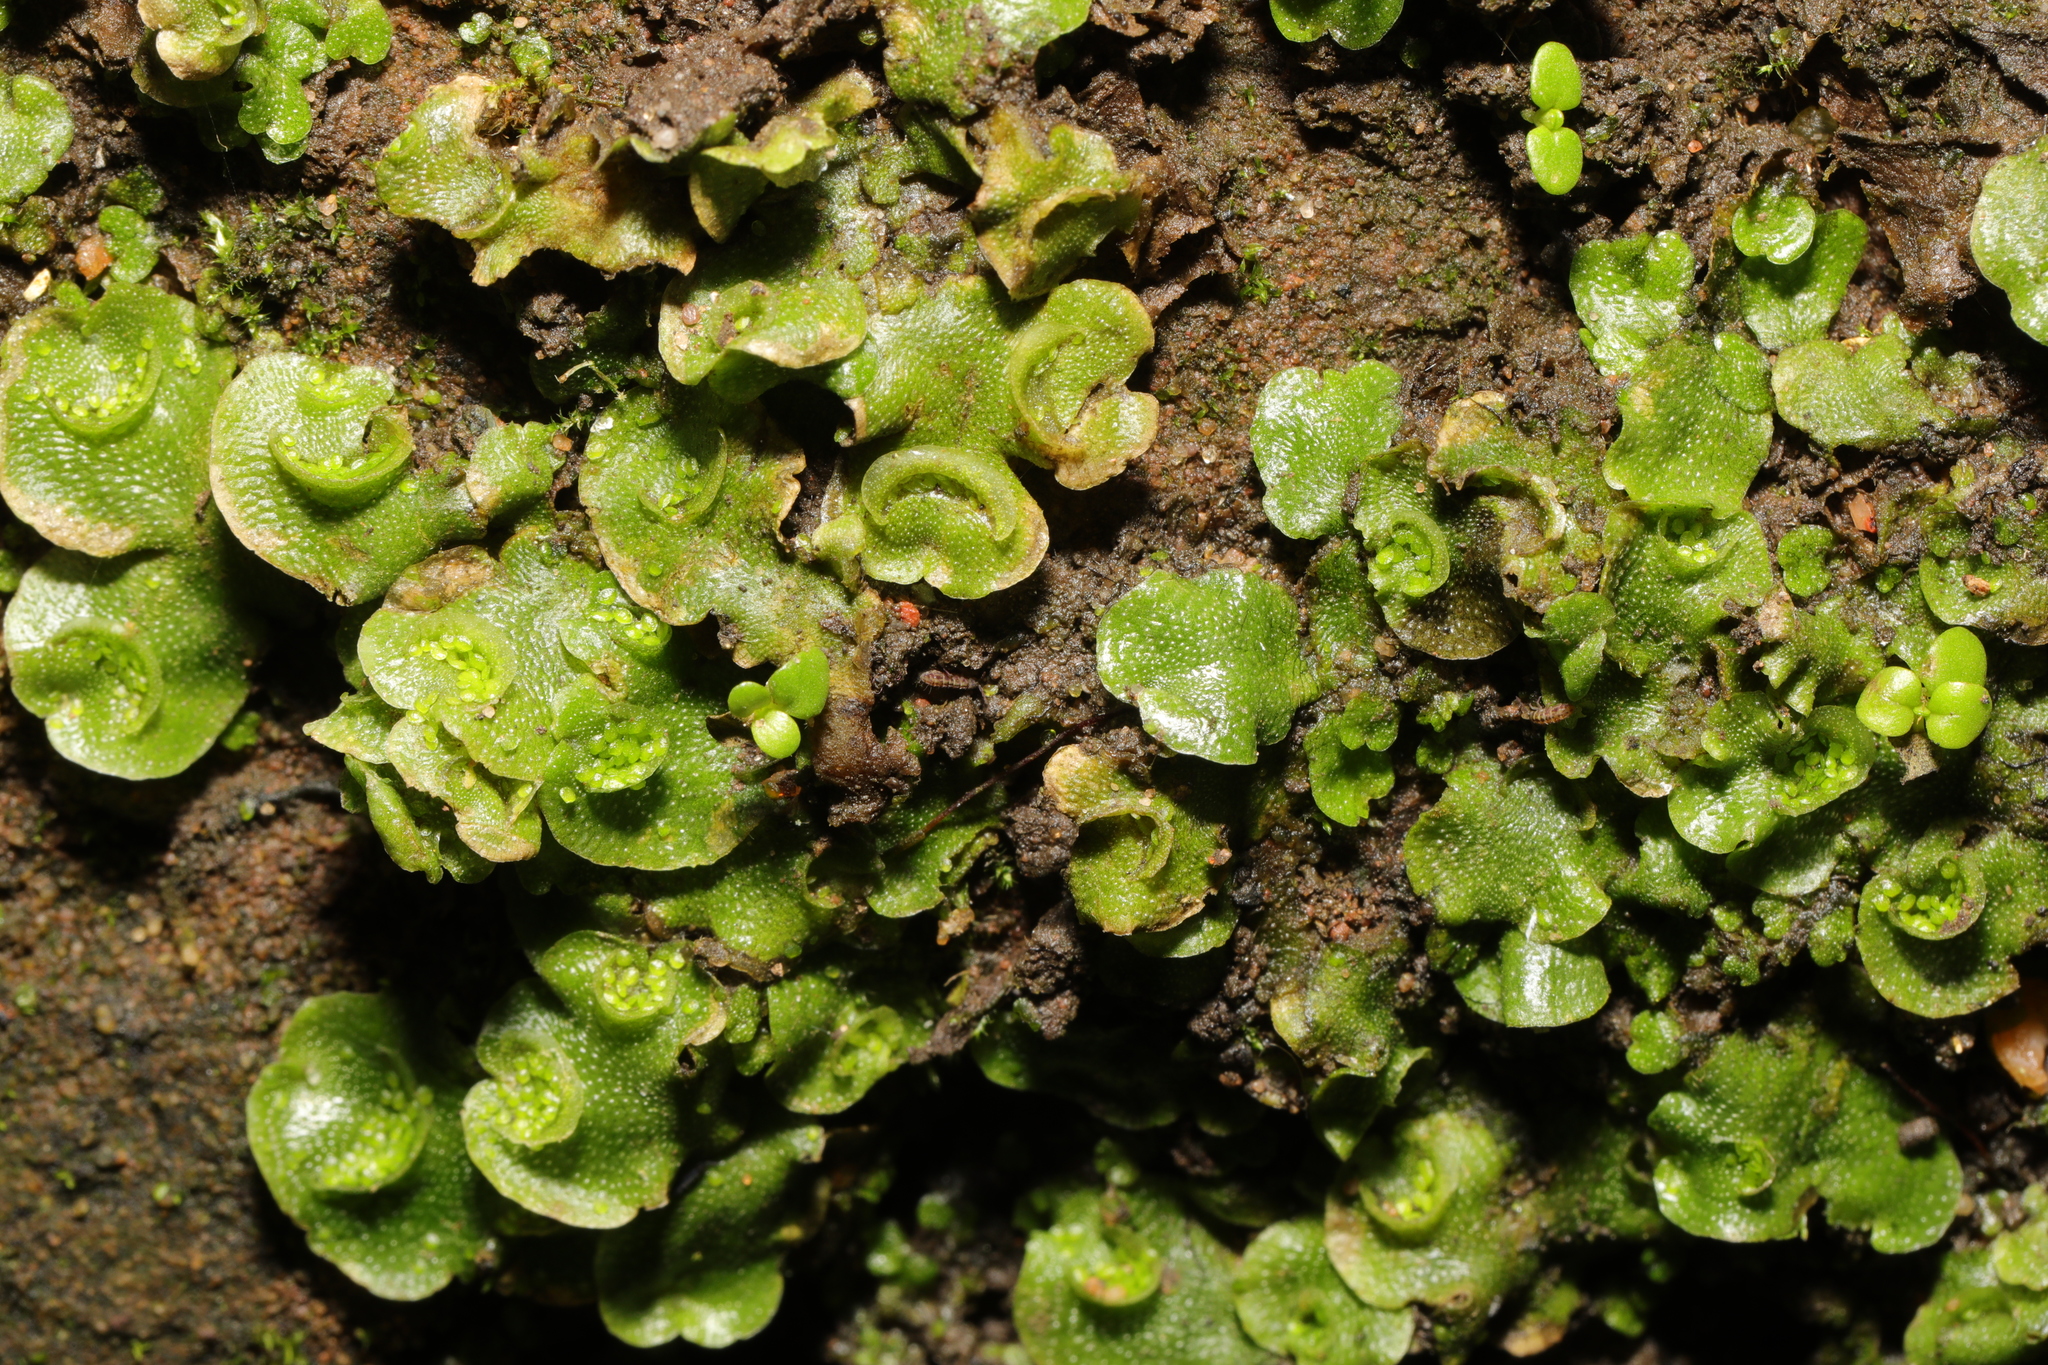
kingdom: Plantae
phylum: Marchantiophyta
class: Marchantiopsida
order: Lunulariales
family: Lunulariaceae
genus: Lunularia
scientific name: Lunularia cruciata
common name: Crescent-cup liverwort
